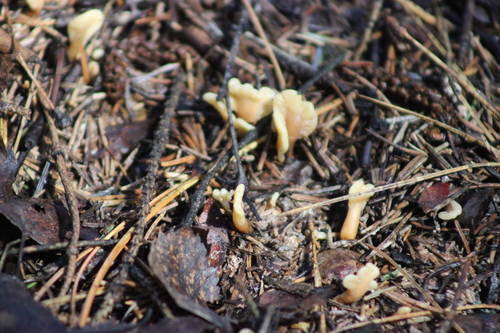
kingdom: Fungi
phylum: Ascomycota
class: Leotiomycetes
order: Rhytismatales
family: Cudoniaceae
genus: Spathularia
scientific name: Spathularia rufa
